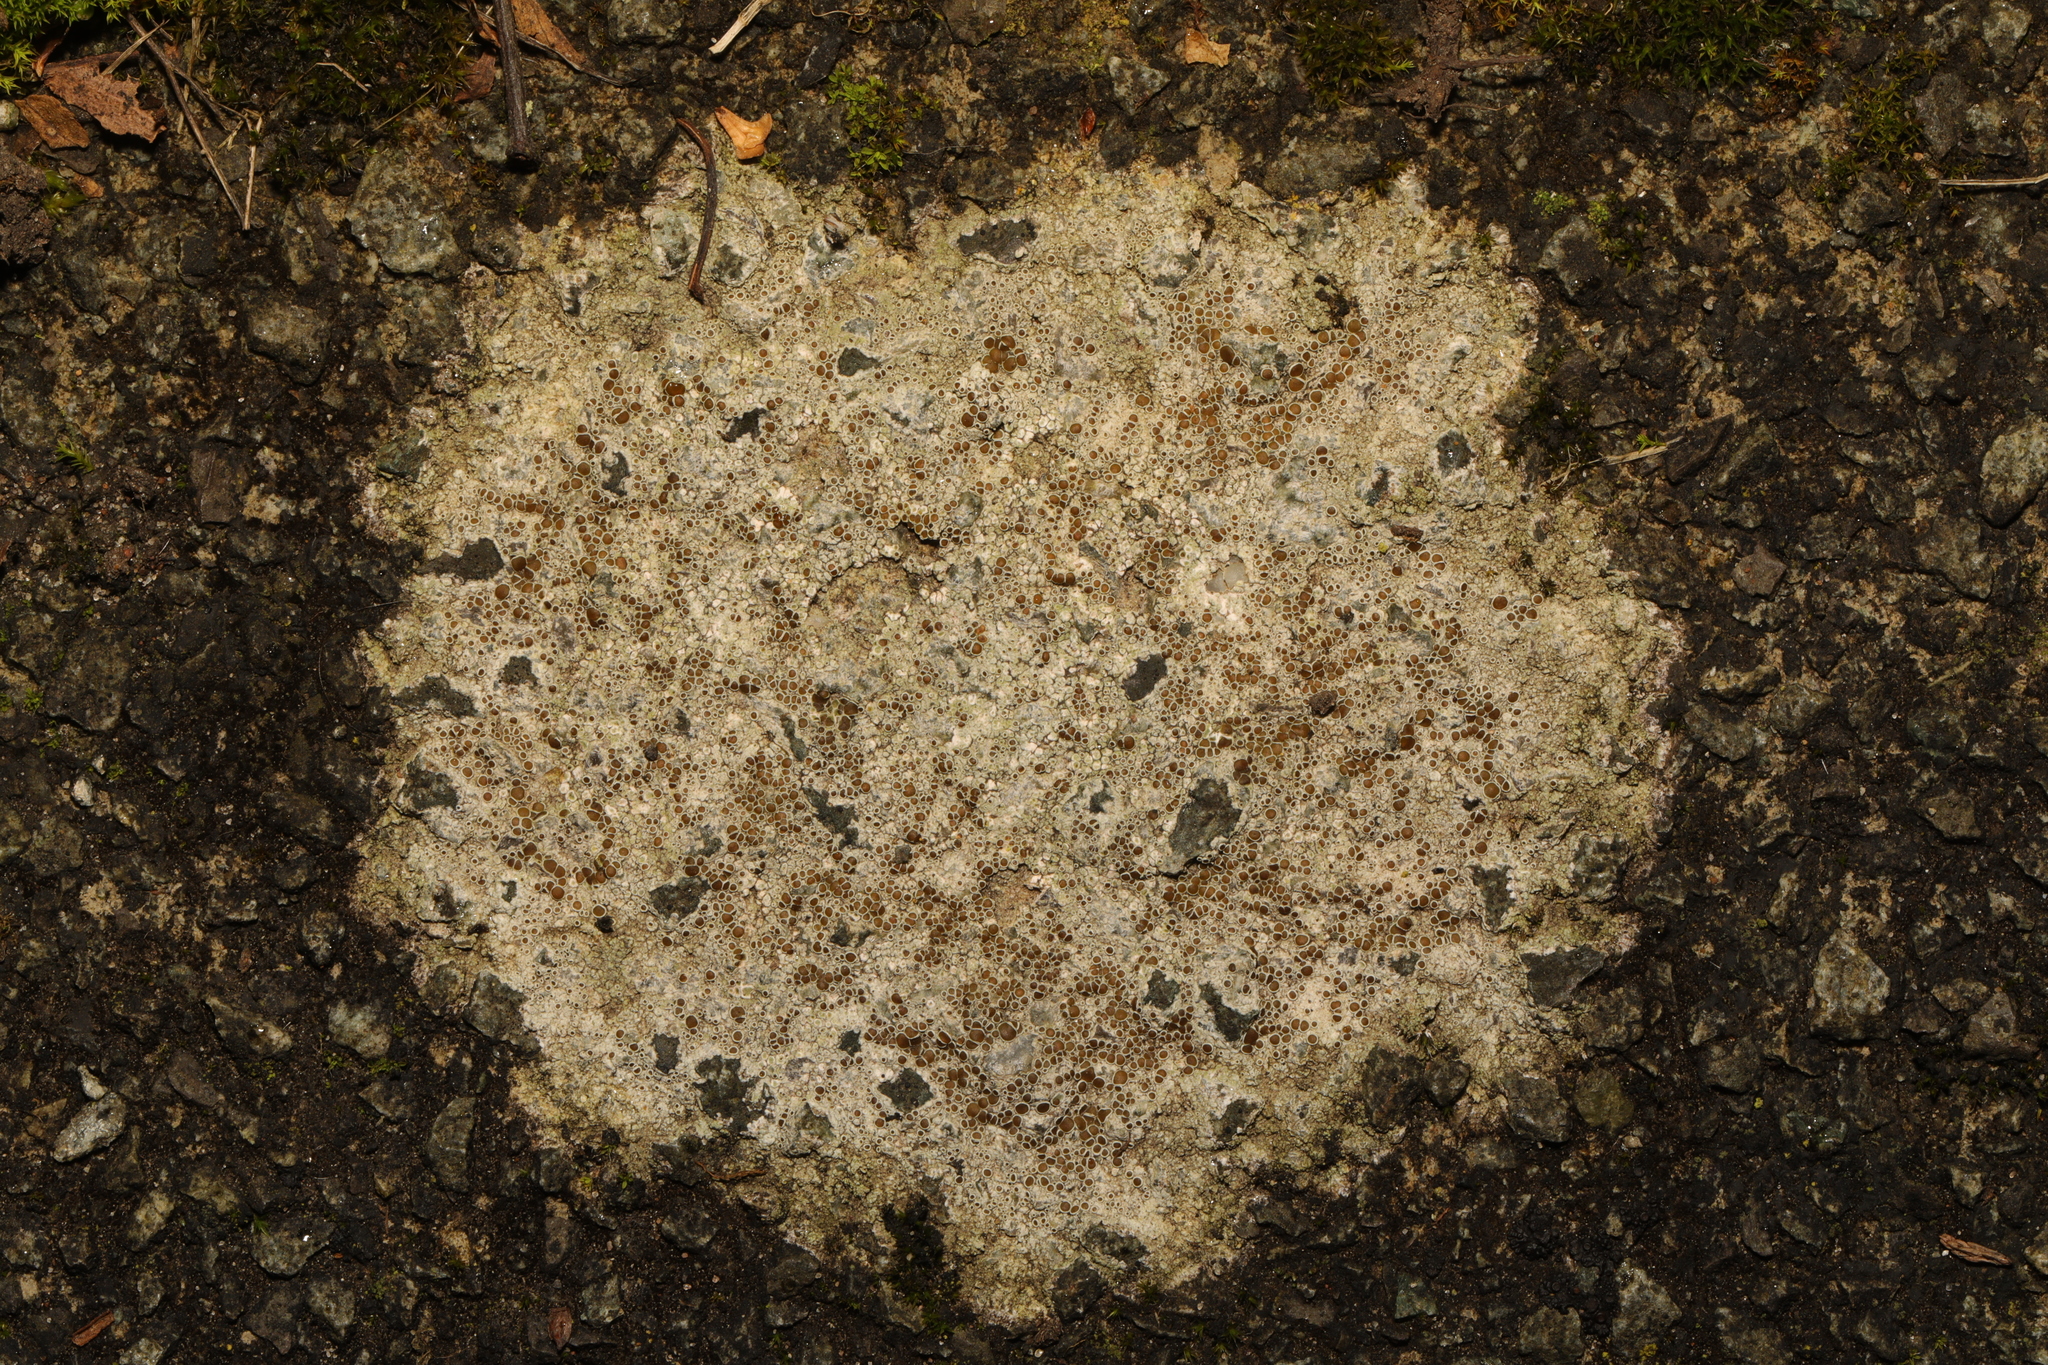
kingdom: Fungi
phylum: Ascomycota
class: Lecanoromycetes
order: Lecanorales
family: Lecanoraceae
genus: Lecanora
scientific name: Lecanora campestris
